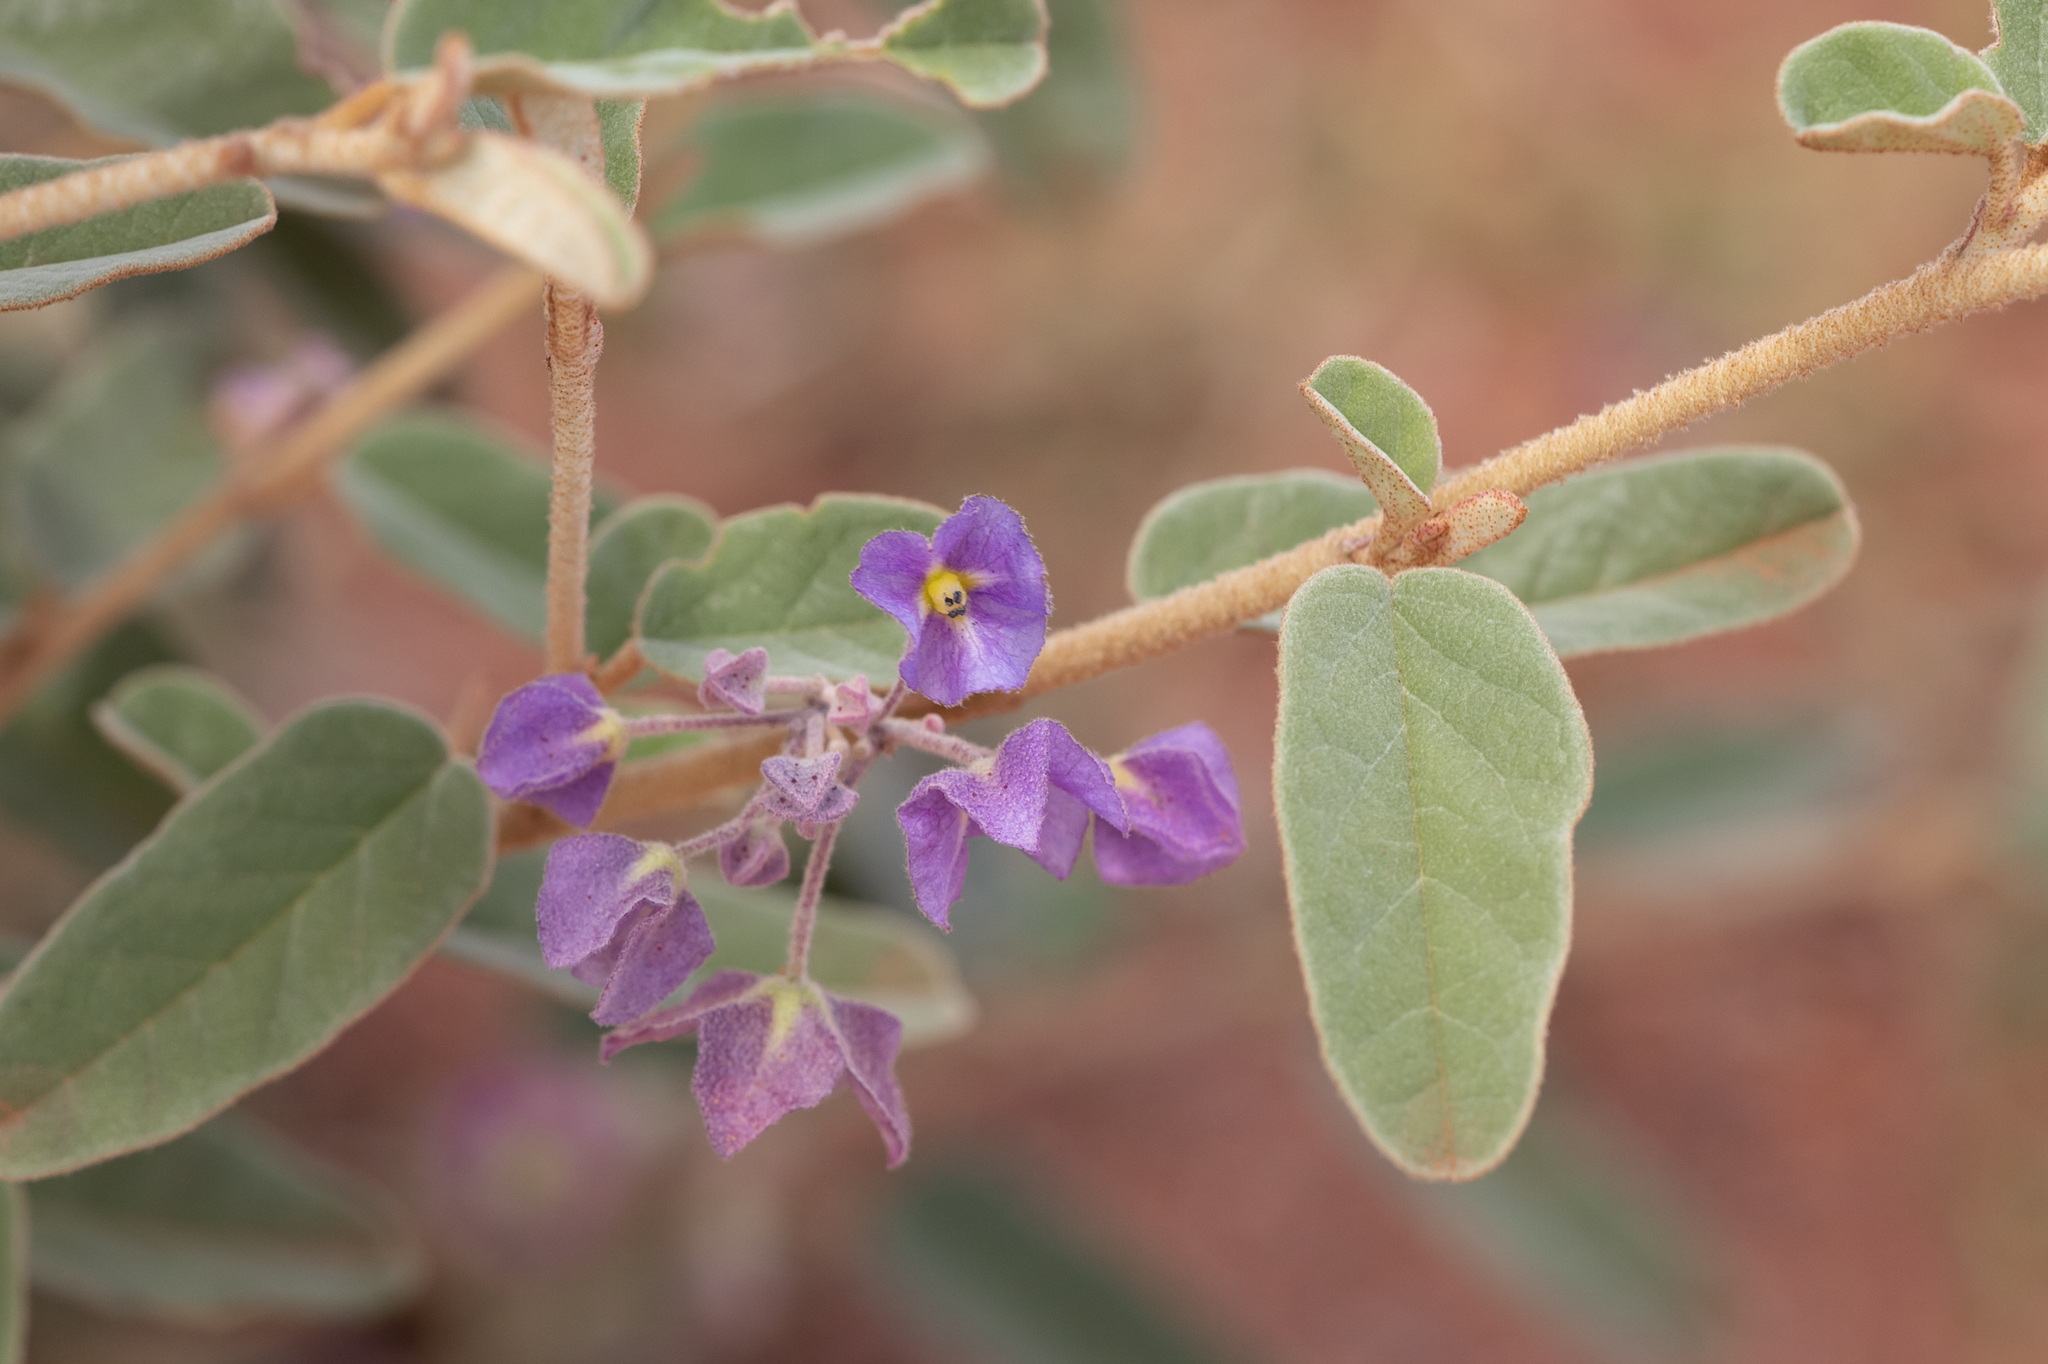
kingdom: Plantae
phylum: Tracheophyta
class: Magnoliopsida
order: Malvales
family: Malvaceae
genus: Seringia
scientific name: Seringia nephrosperma
